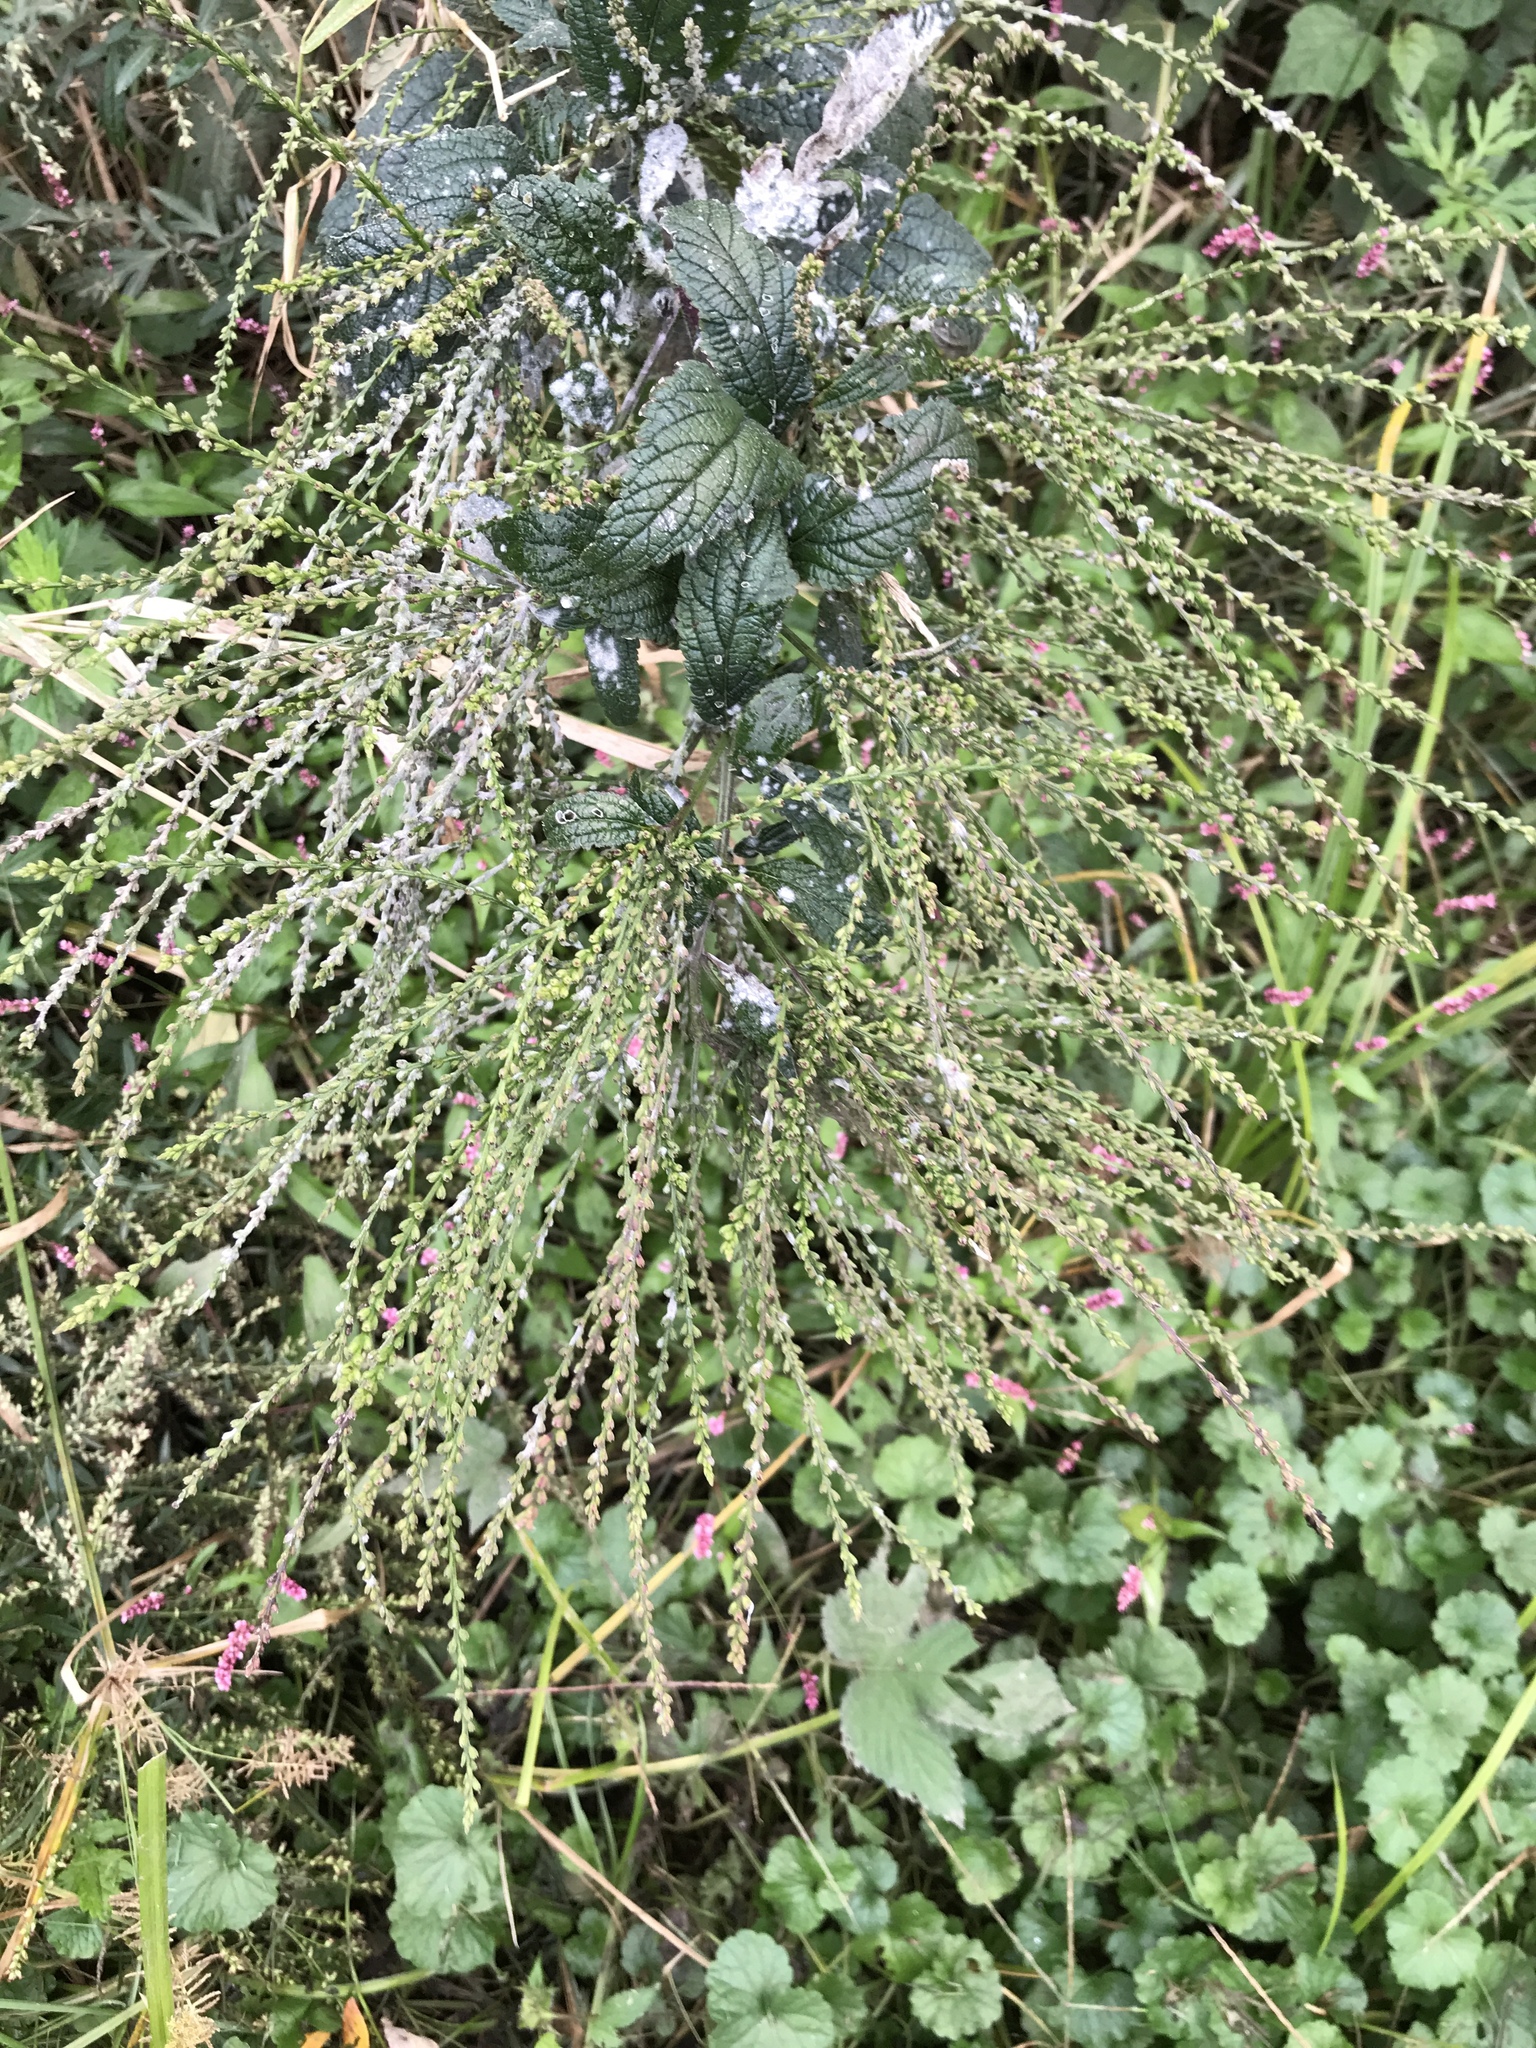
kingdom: Plantae
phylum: Tracheophyta
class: Magnoliopsida
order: Lamiales
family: Verbenaceae
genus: Verbena
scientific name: Verbena urticifolia
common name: Nettle-leaved vervain
